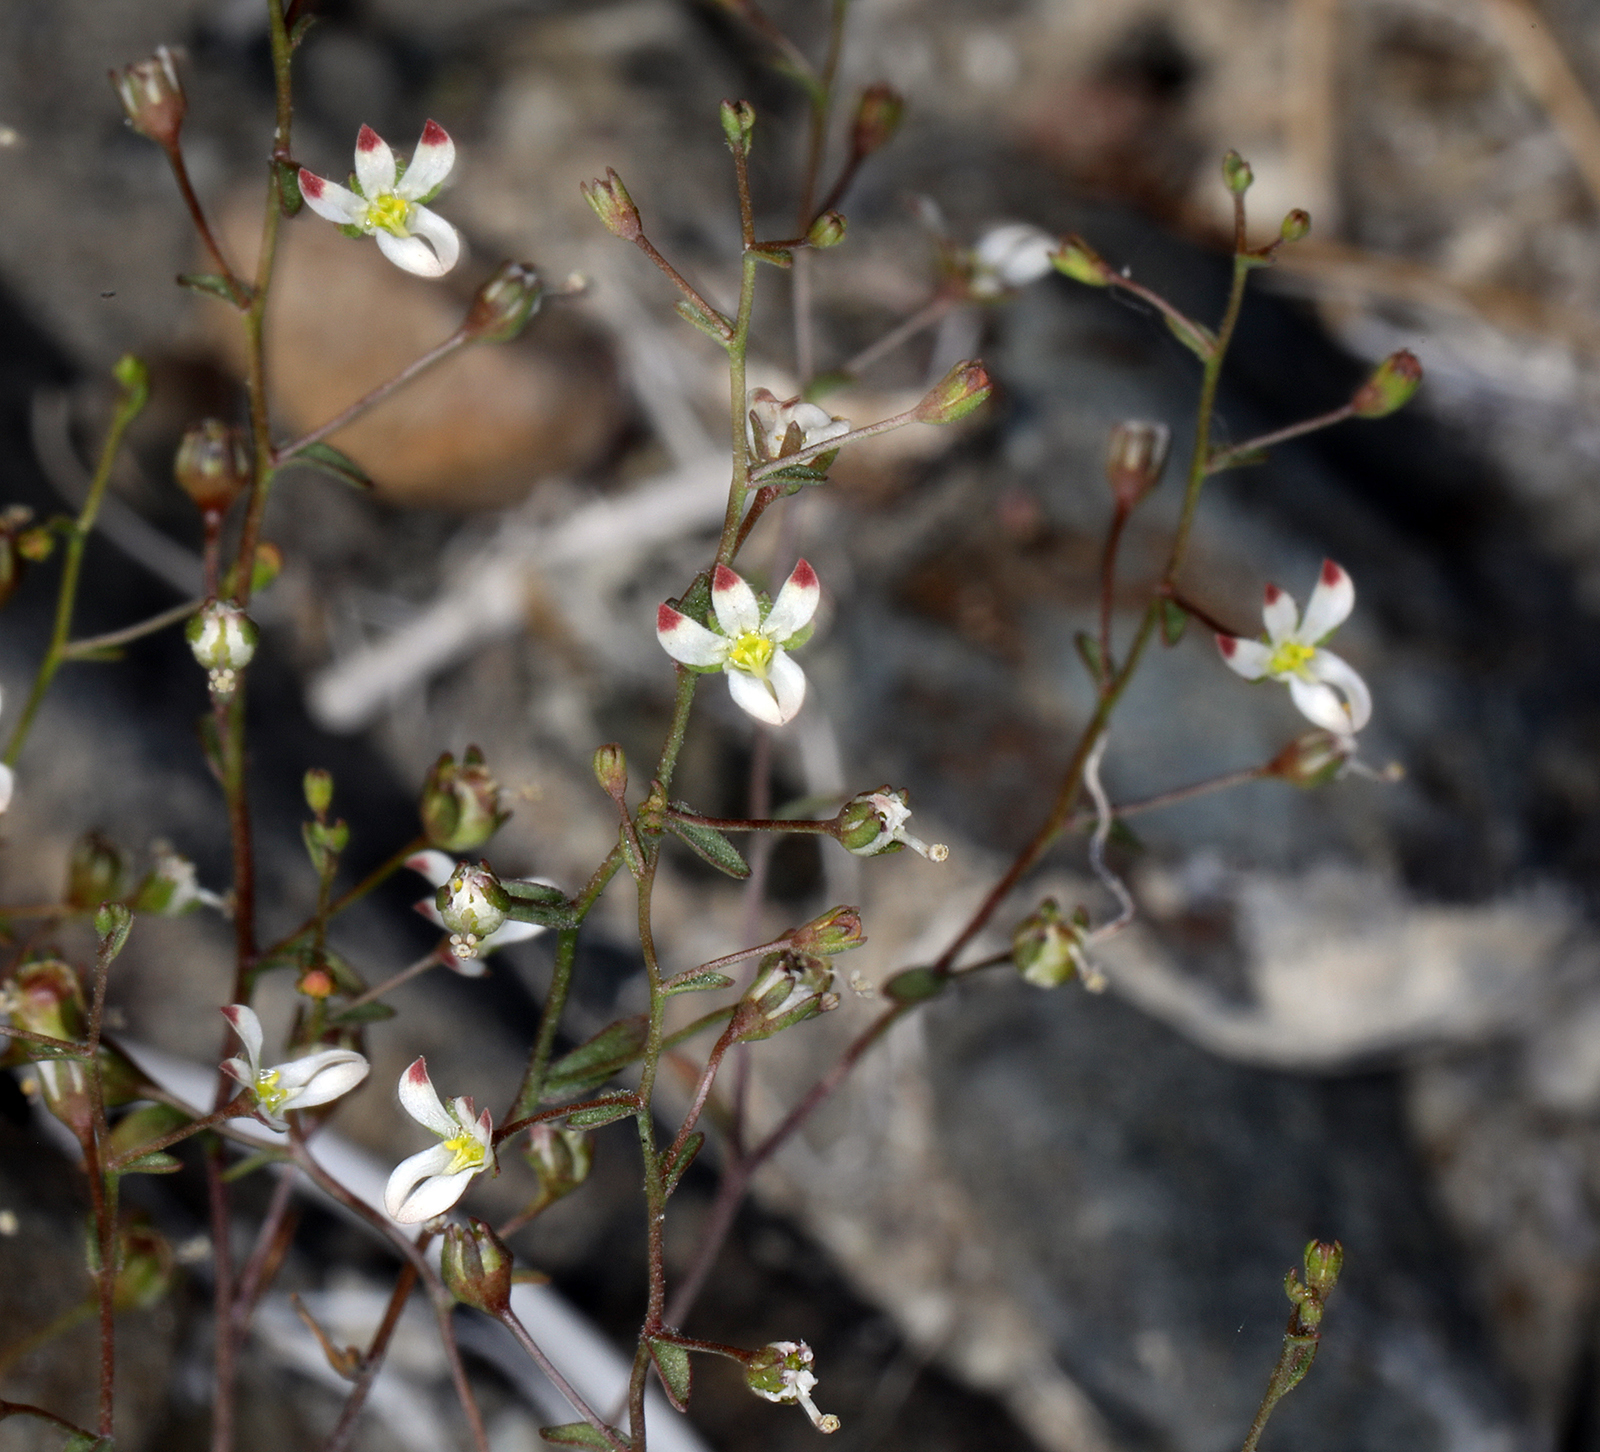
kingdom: Plantae
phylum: Tracheophyta
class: Magnoliopsida
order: Asterales
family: Campanulaceae
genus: Nemacladus
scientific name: Nemacladus orientalis
